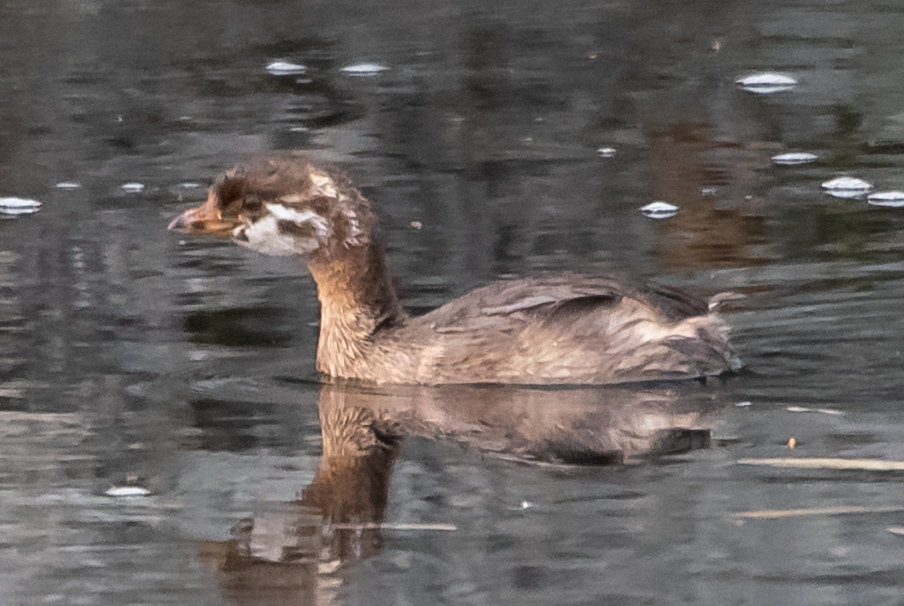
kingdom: Animalia
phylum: Chordata
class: Aves
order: Podicipediformes
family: Podicipedidae
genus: Podilymbus
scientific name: Podilymbus podiceps
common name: Pied-billed grebe
